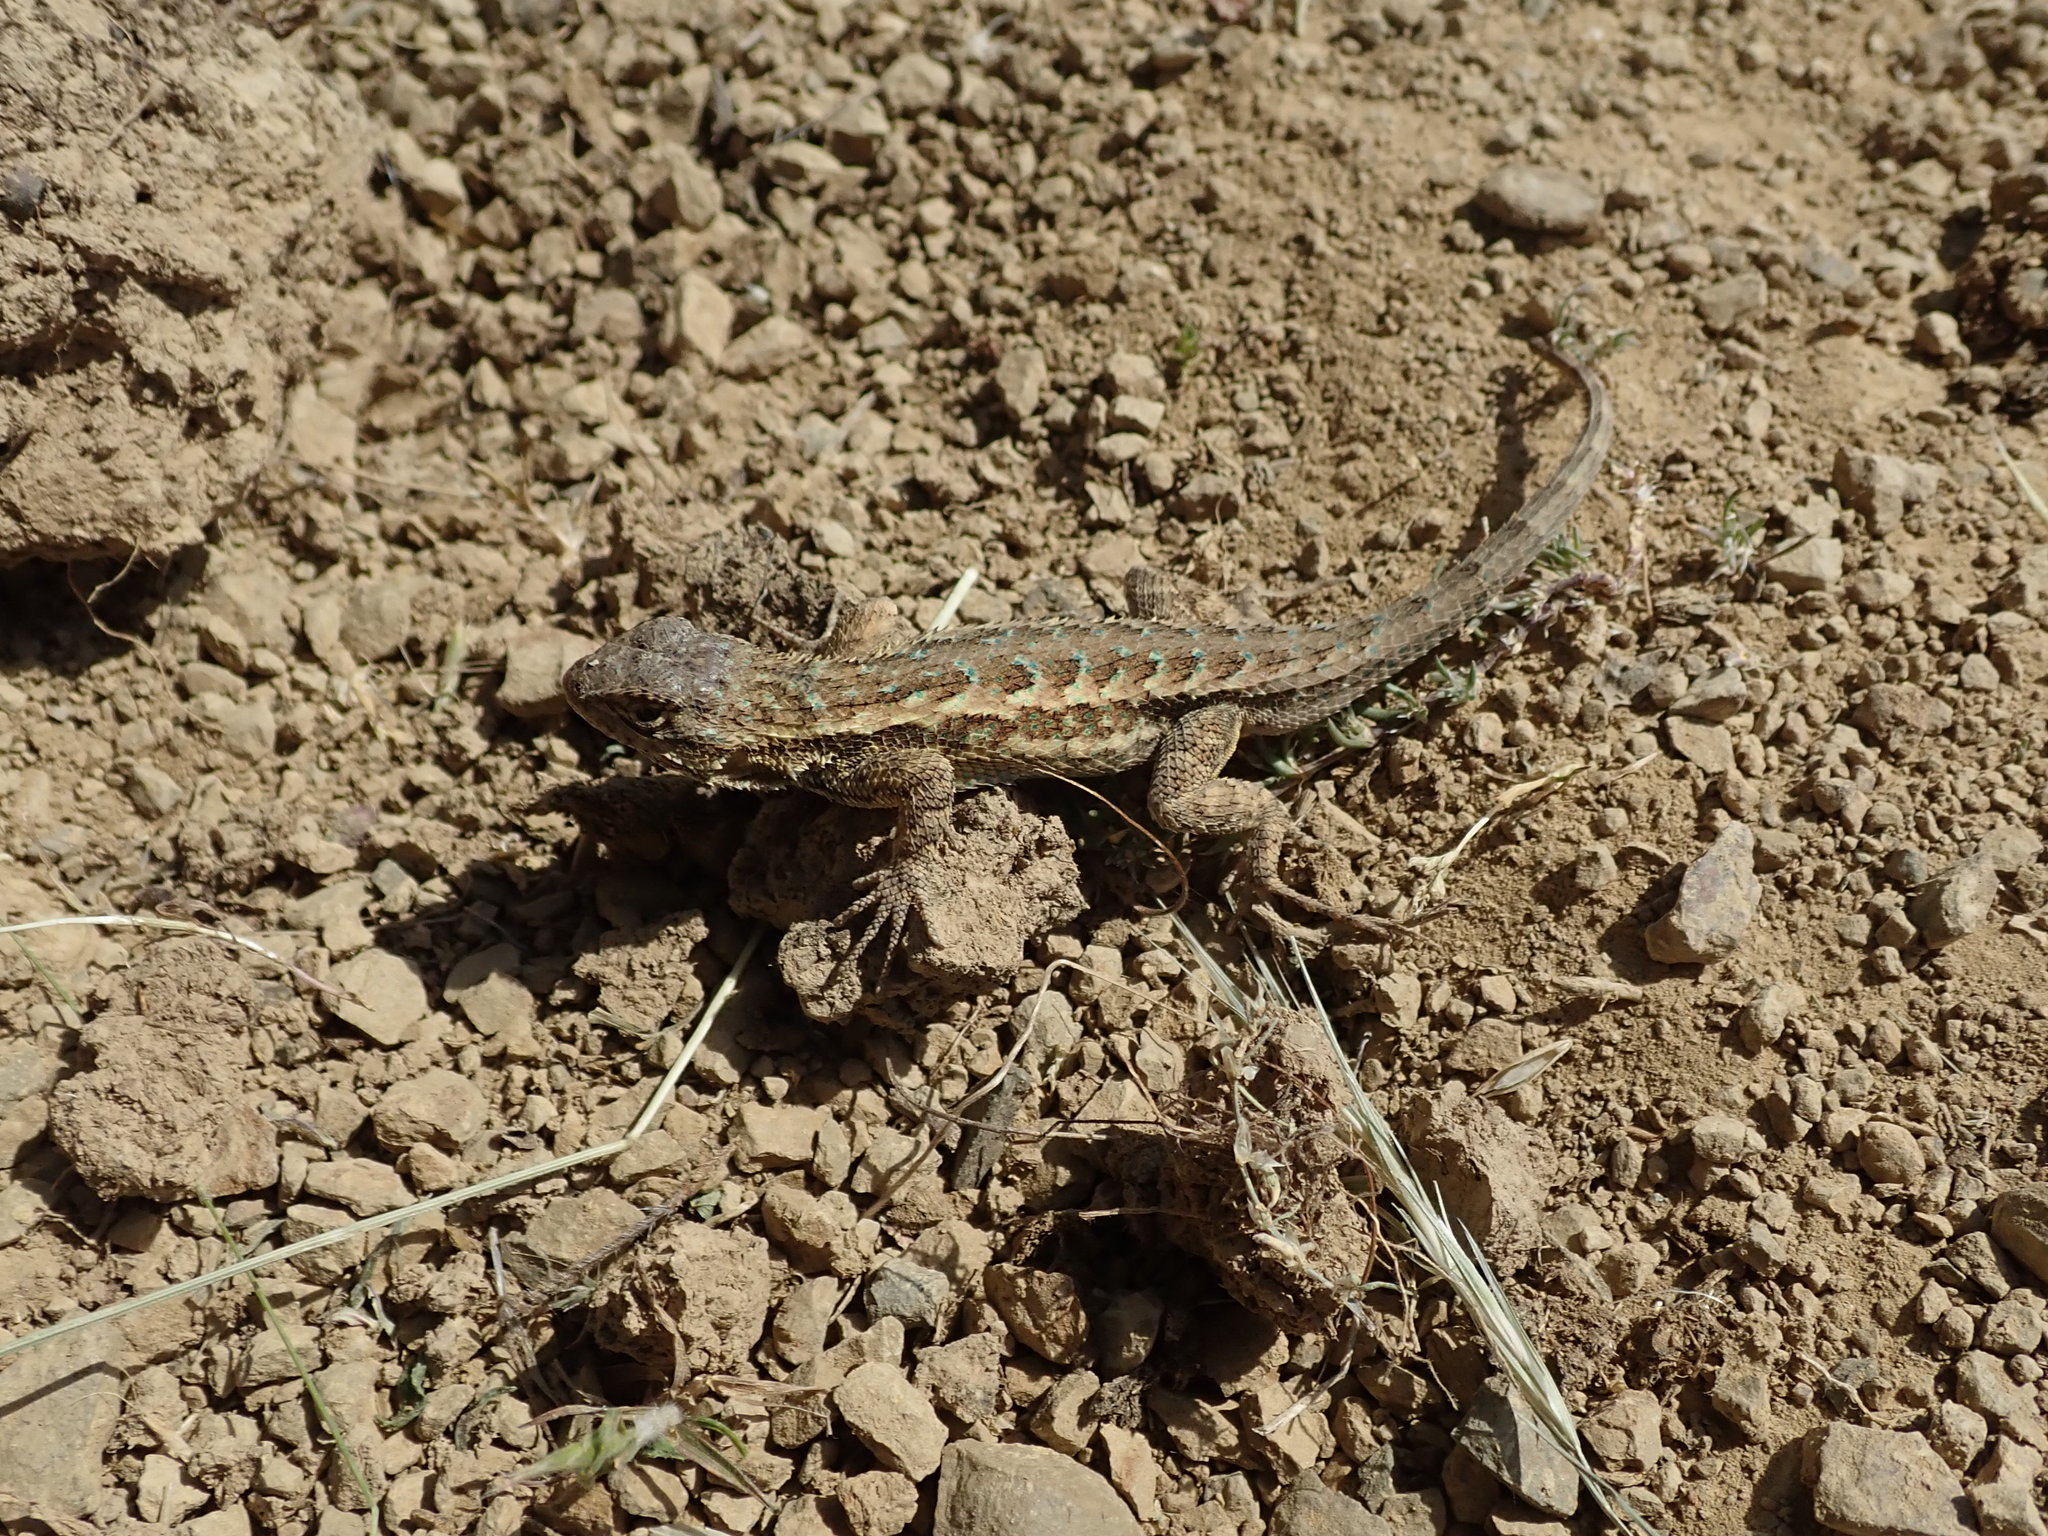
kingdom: Animalia
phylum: Chordata
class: Squamata
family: Phrynosomatidae
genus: Sceloporus
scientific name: Sceloporus occidentalis
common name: Western fence lizard
